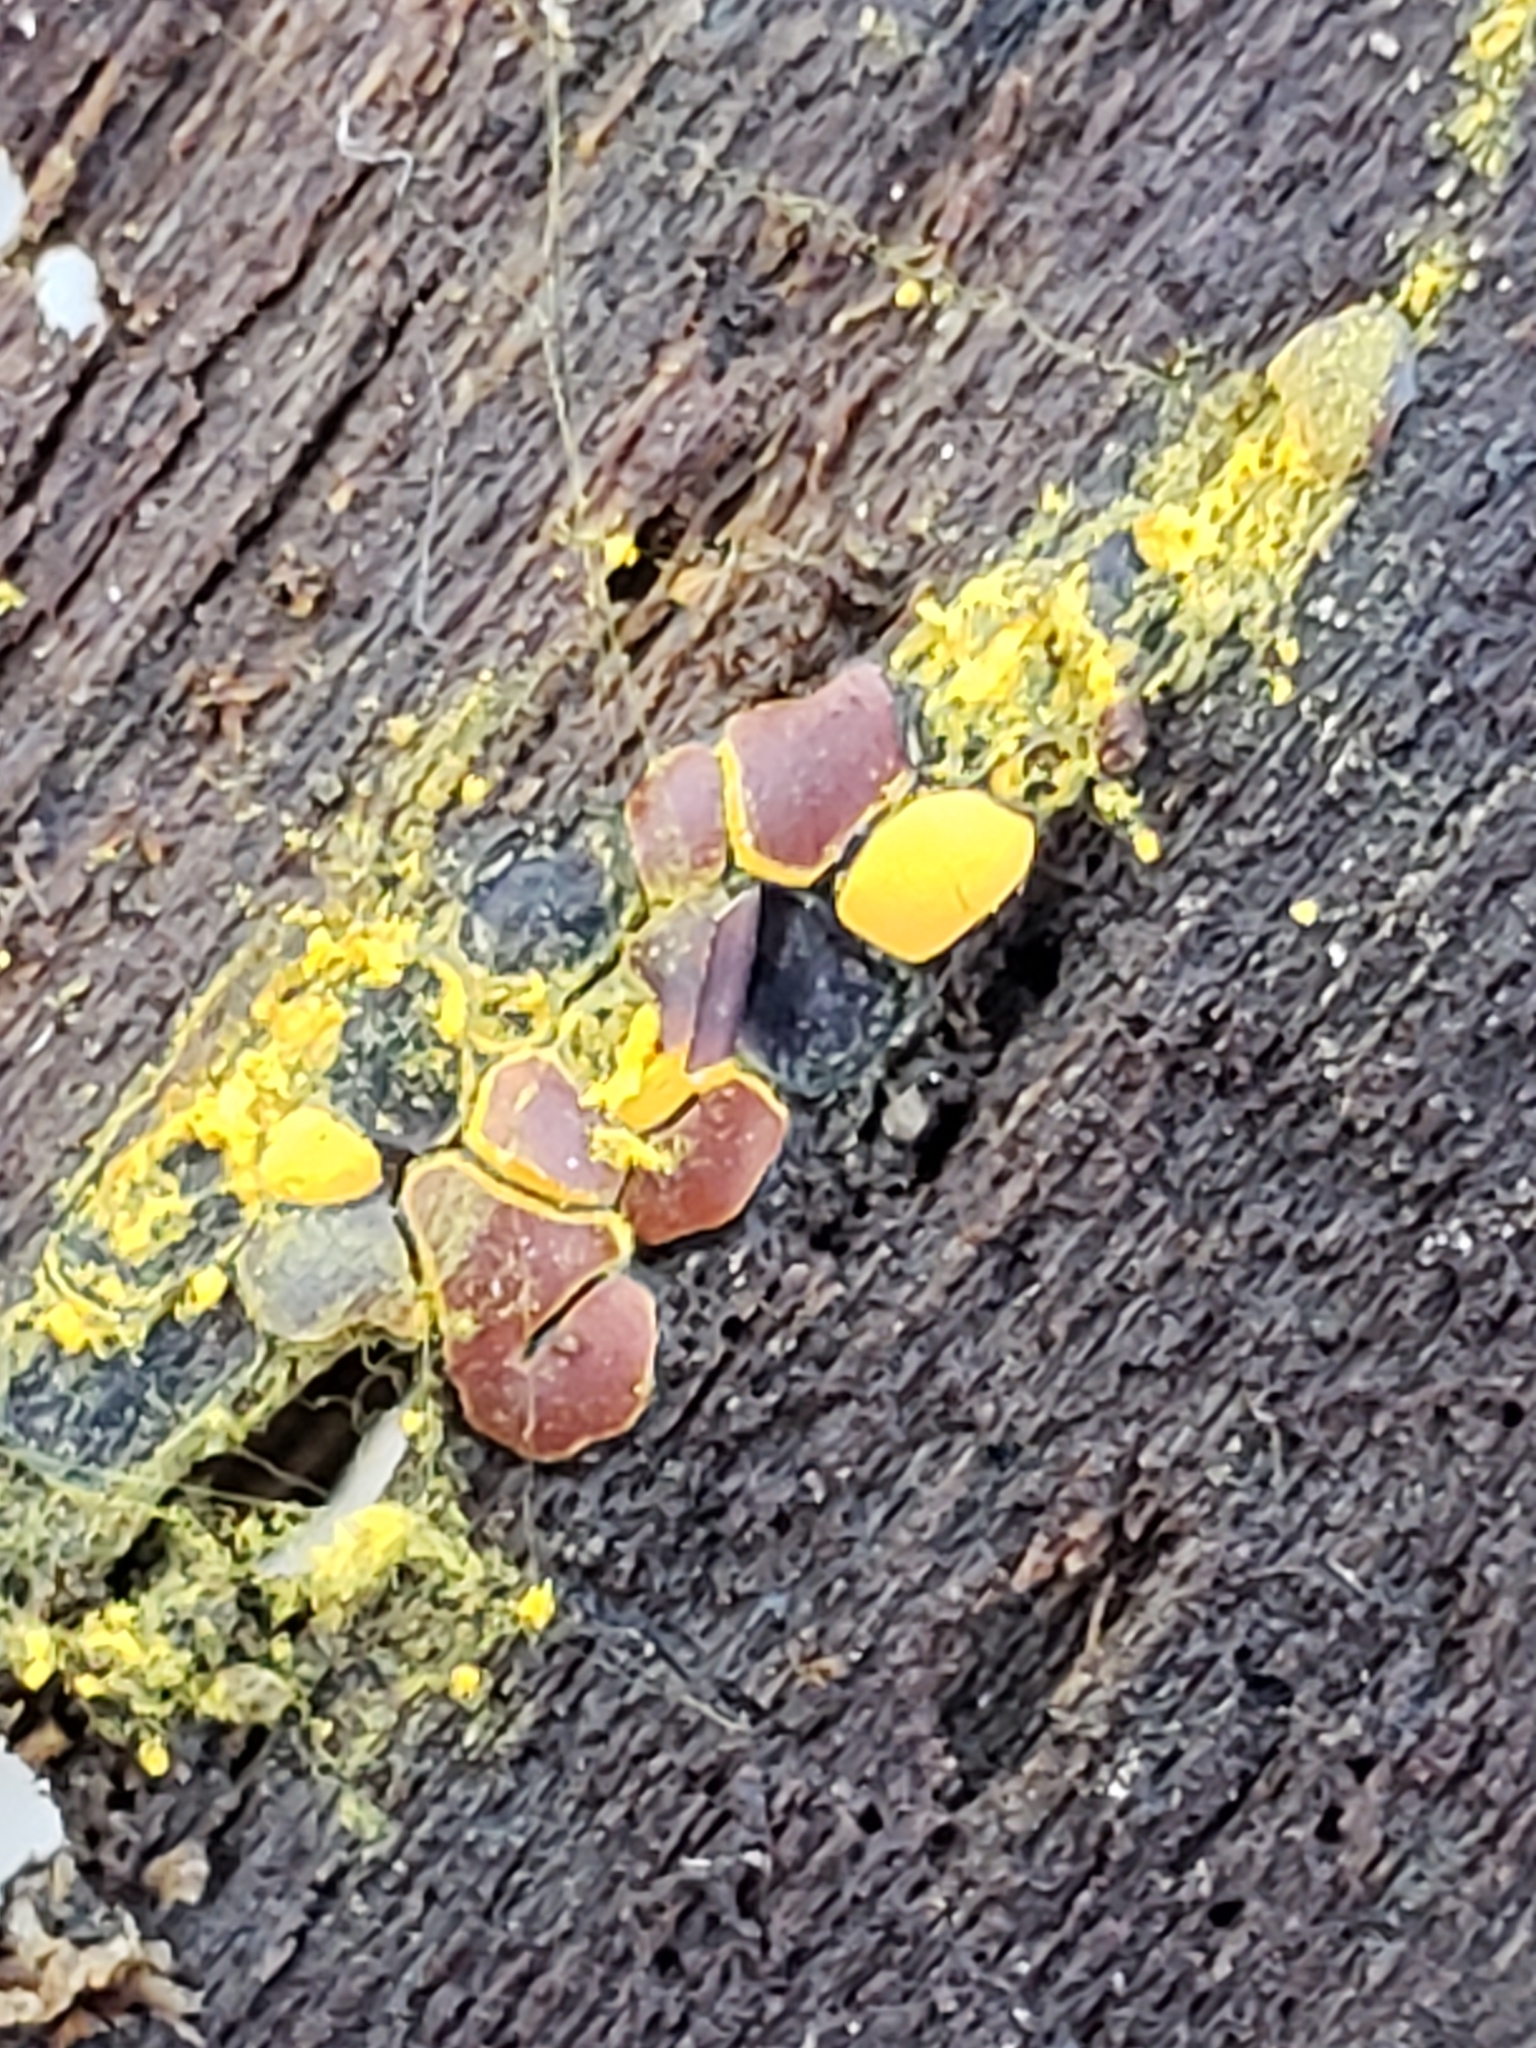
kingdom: Protozoa
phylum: Mycetozoa
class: Myxomycetes
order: Trichiales
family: Trichiaceae
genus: Perichaena
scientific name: Perichaena depressa
